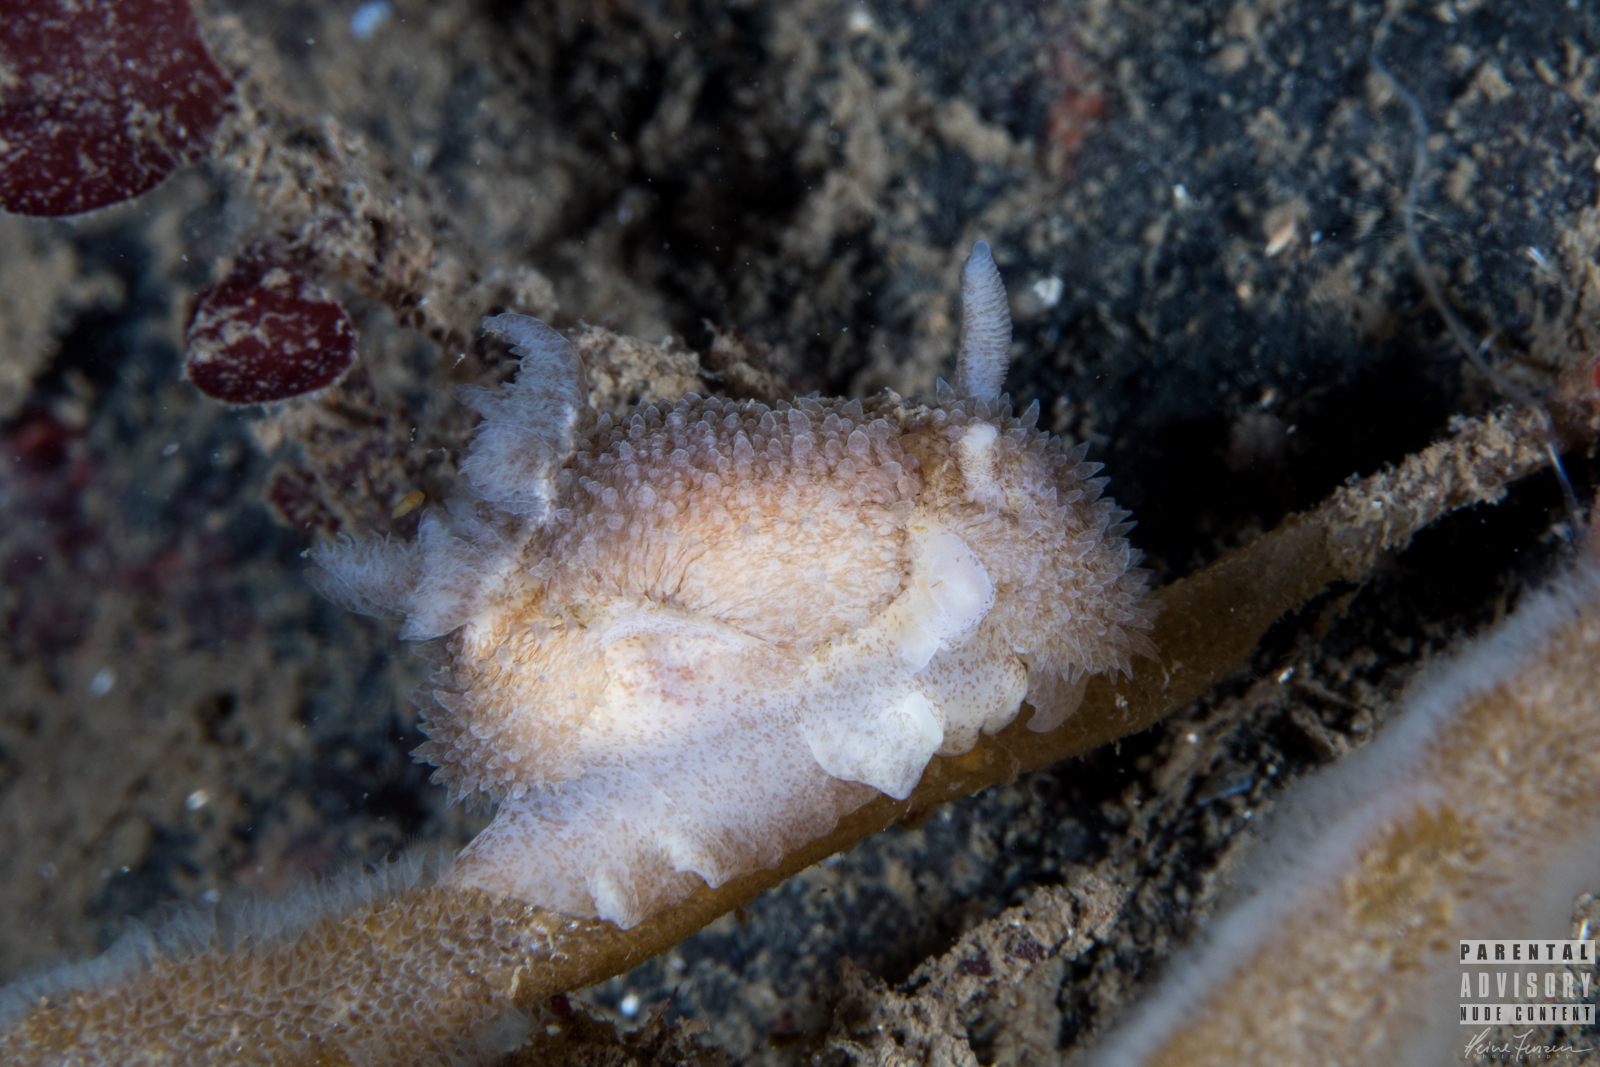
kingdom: Animalia
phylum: Mollusca
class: Gastropoda
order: Nudibranchia
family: Onchidorididae
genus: Acanthodoris
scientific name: Acanthodoris pilosa
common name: Hairy spiny doris
